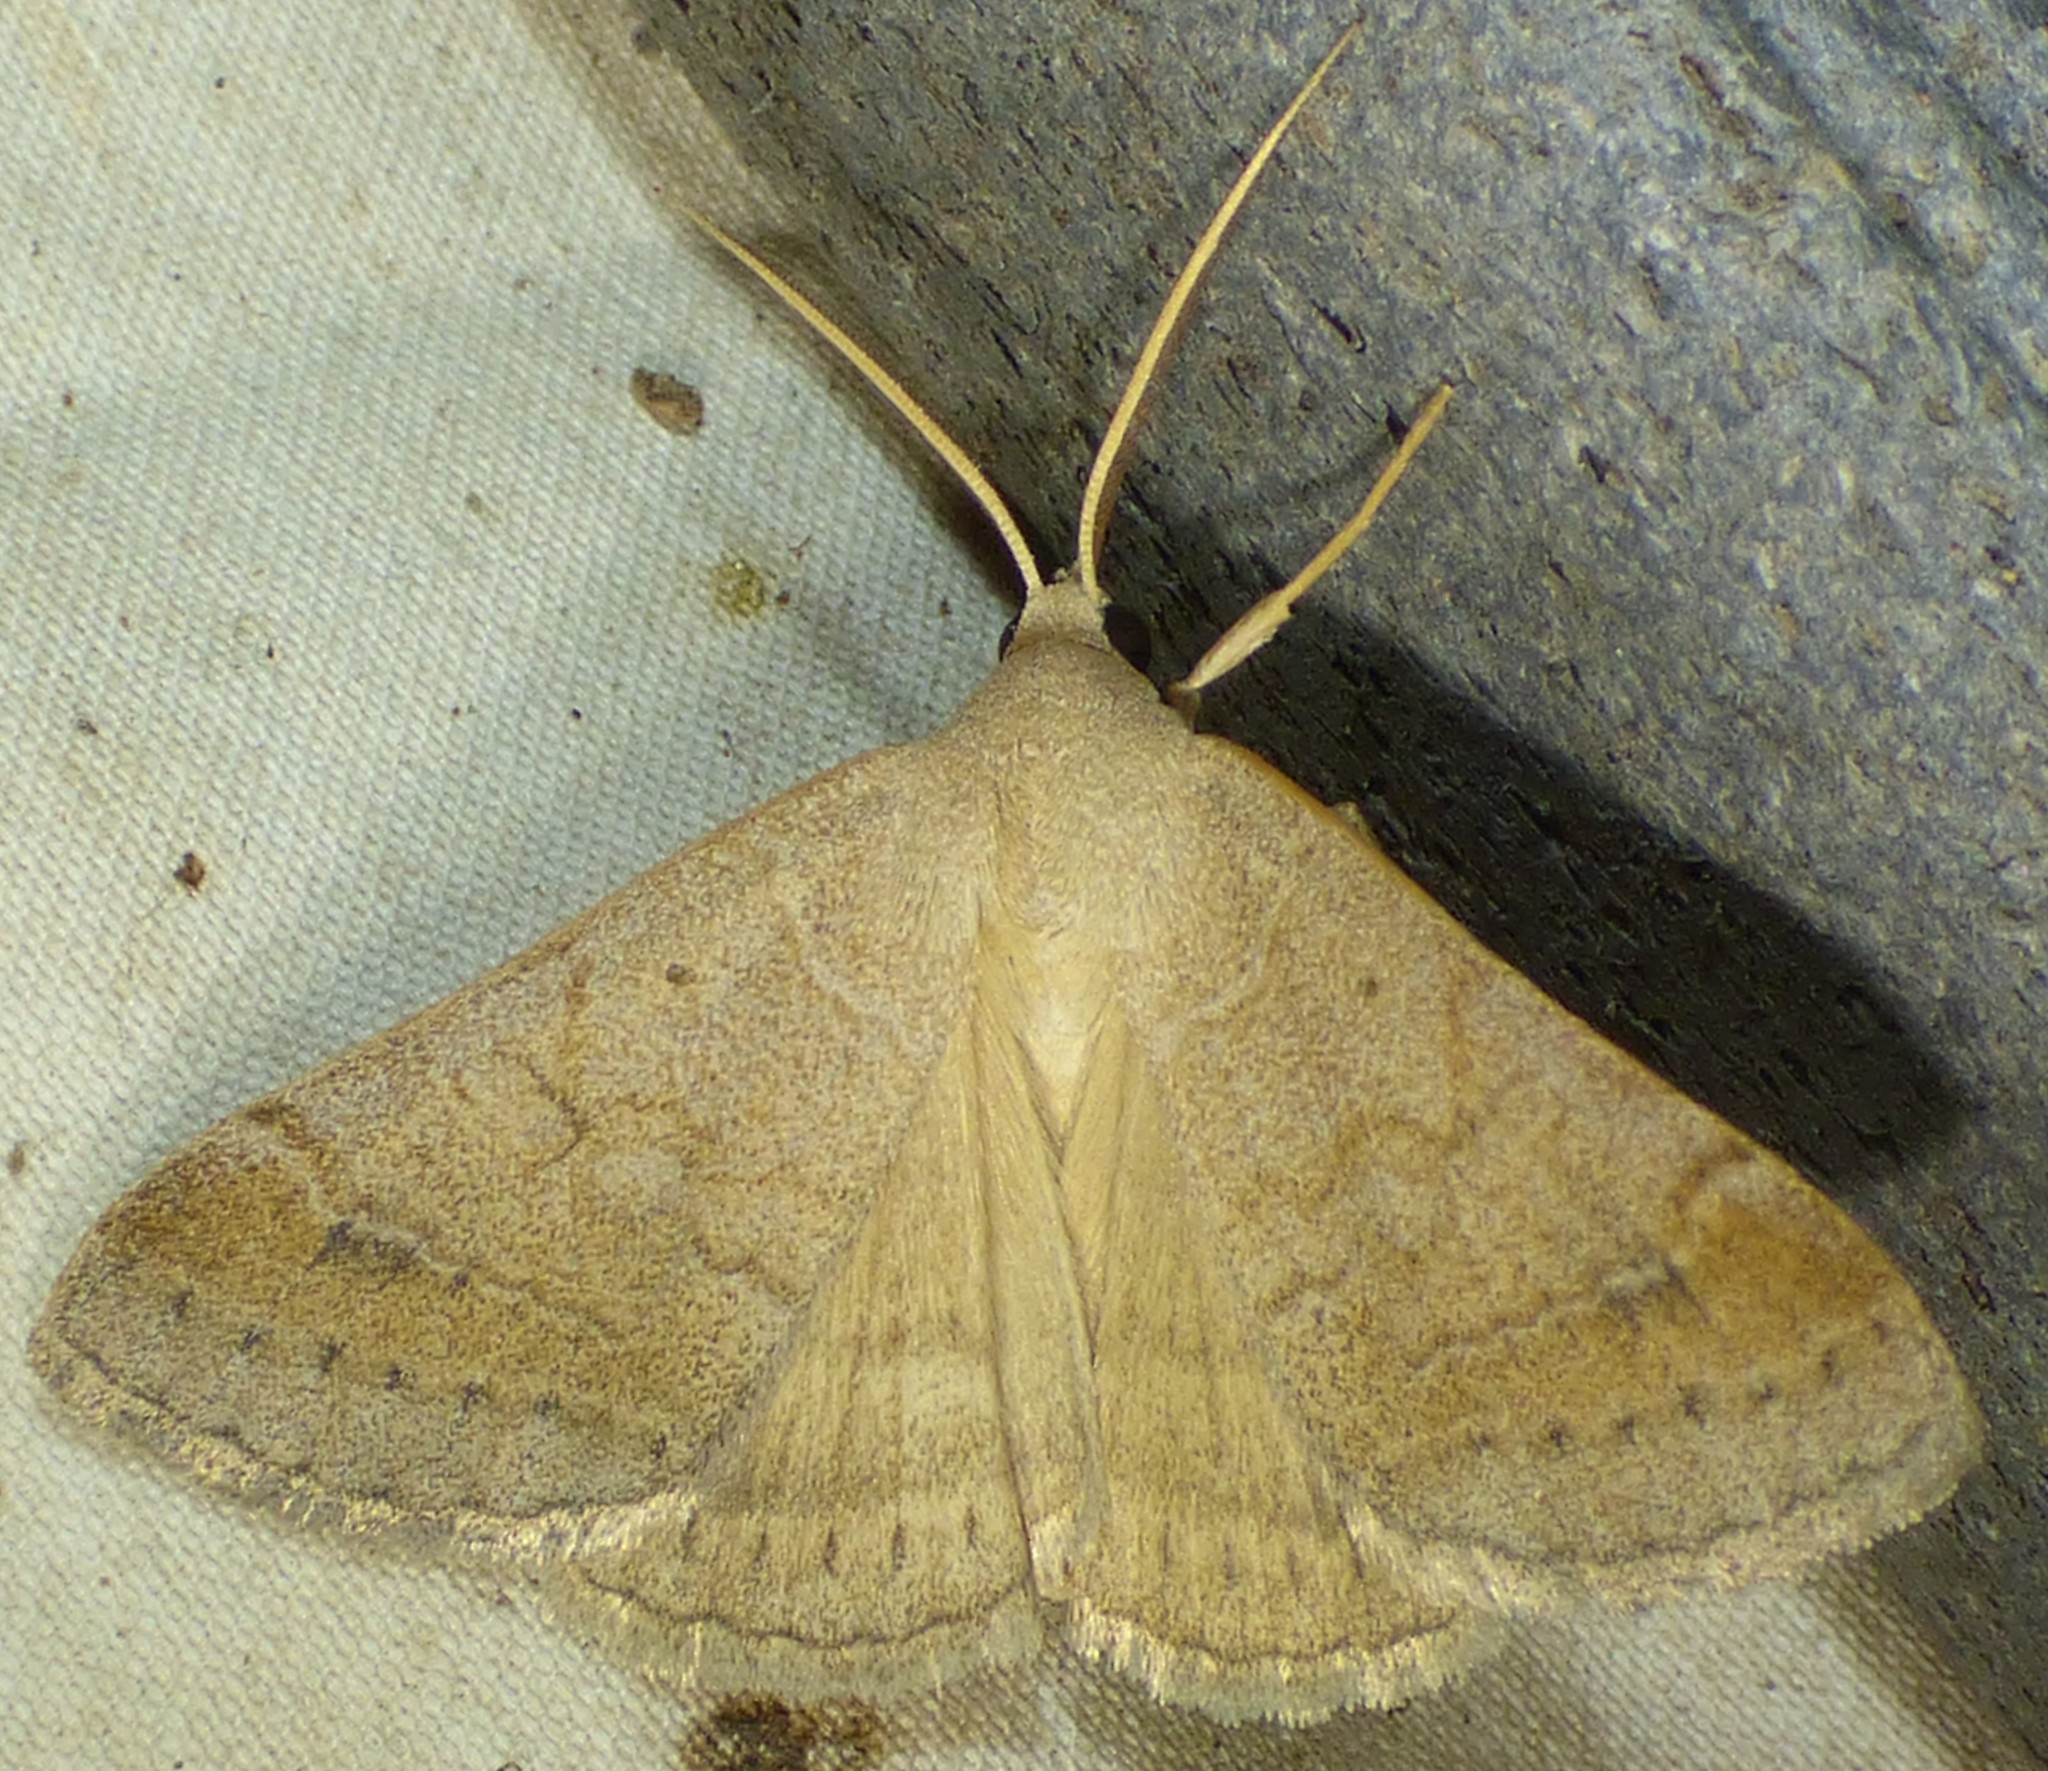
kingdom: Animalia
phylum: Arthropoda
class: Insecta
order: Lepidoptera
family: Erebidae
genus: Caenurgia
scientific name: Caenurgia chloropha
